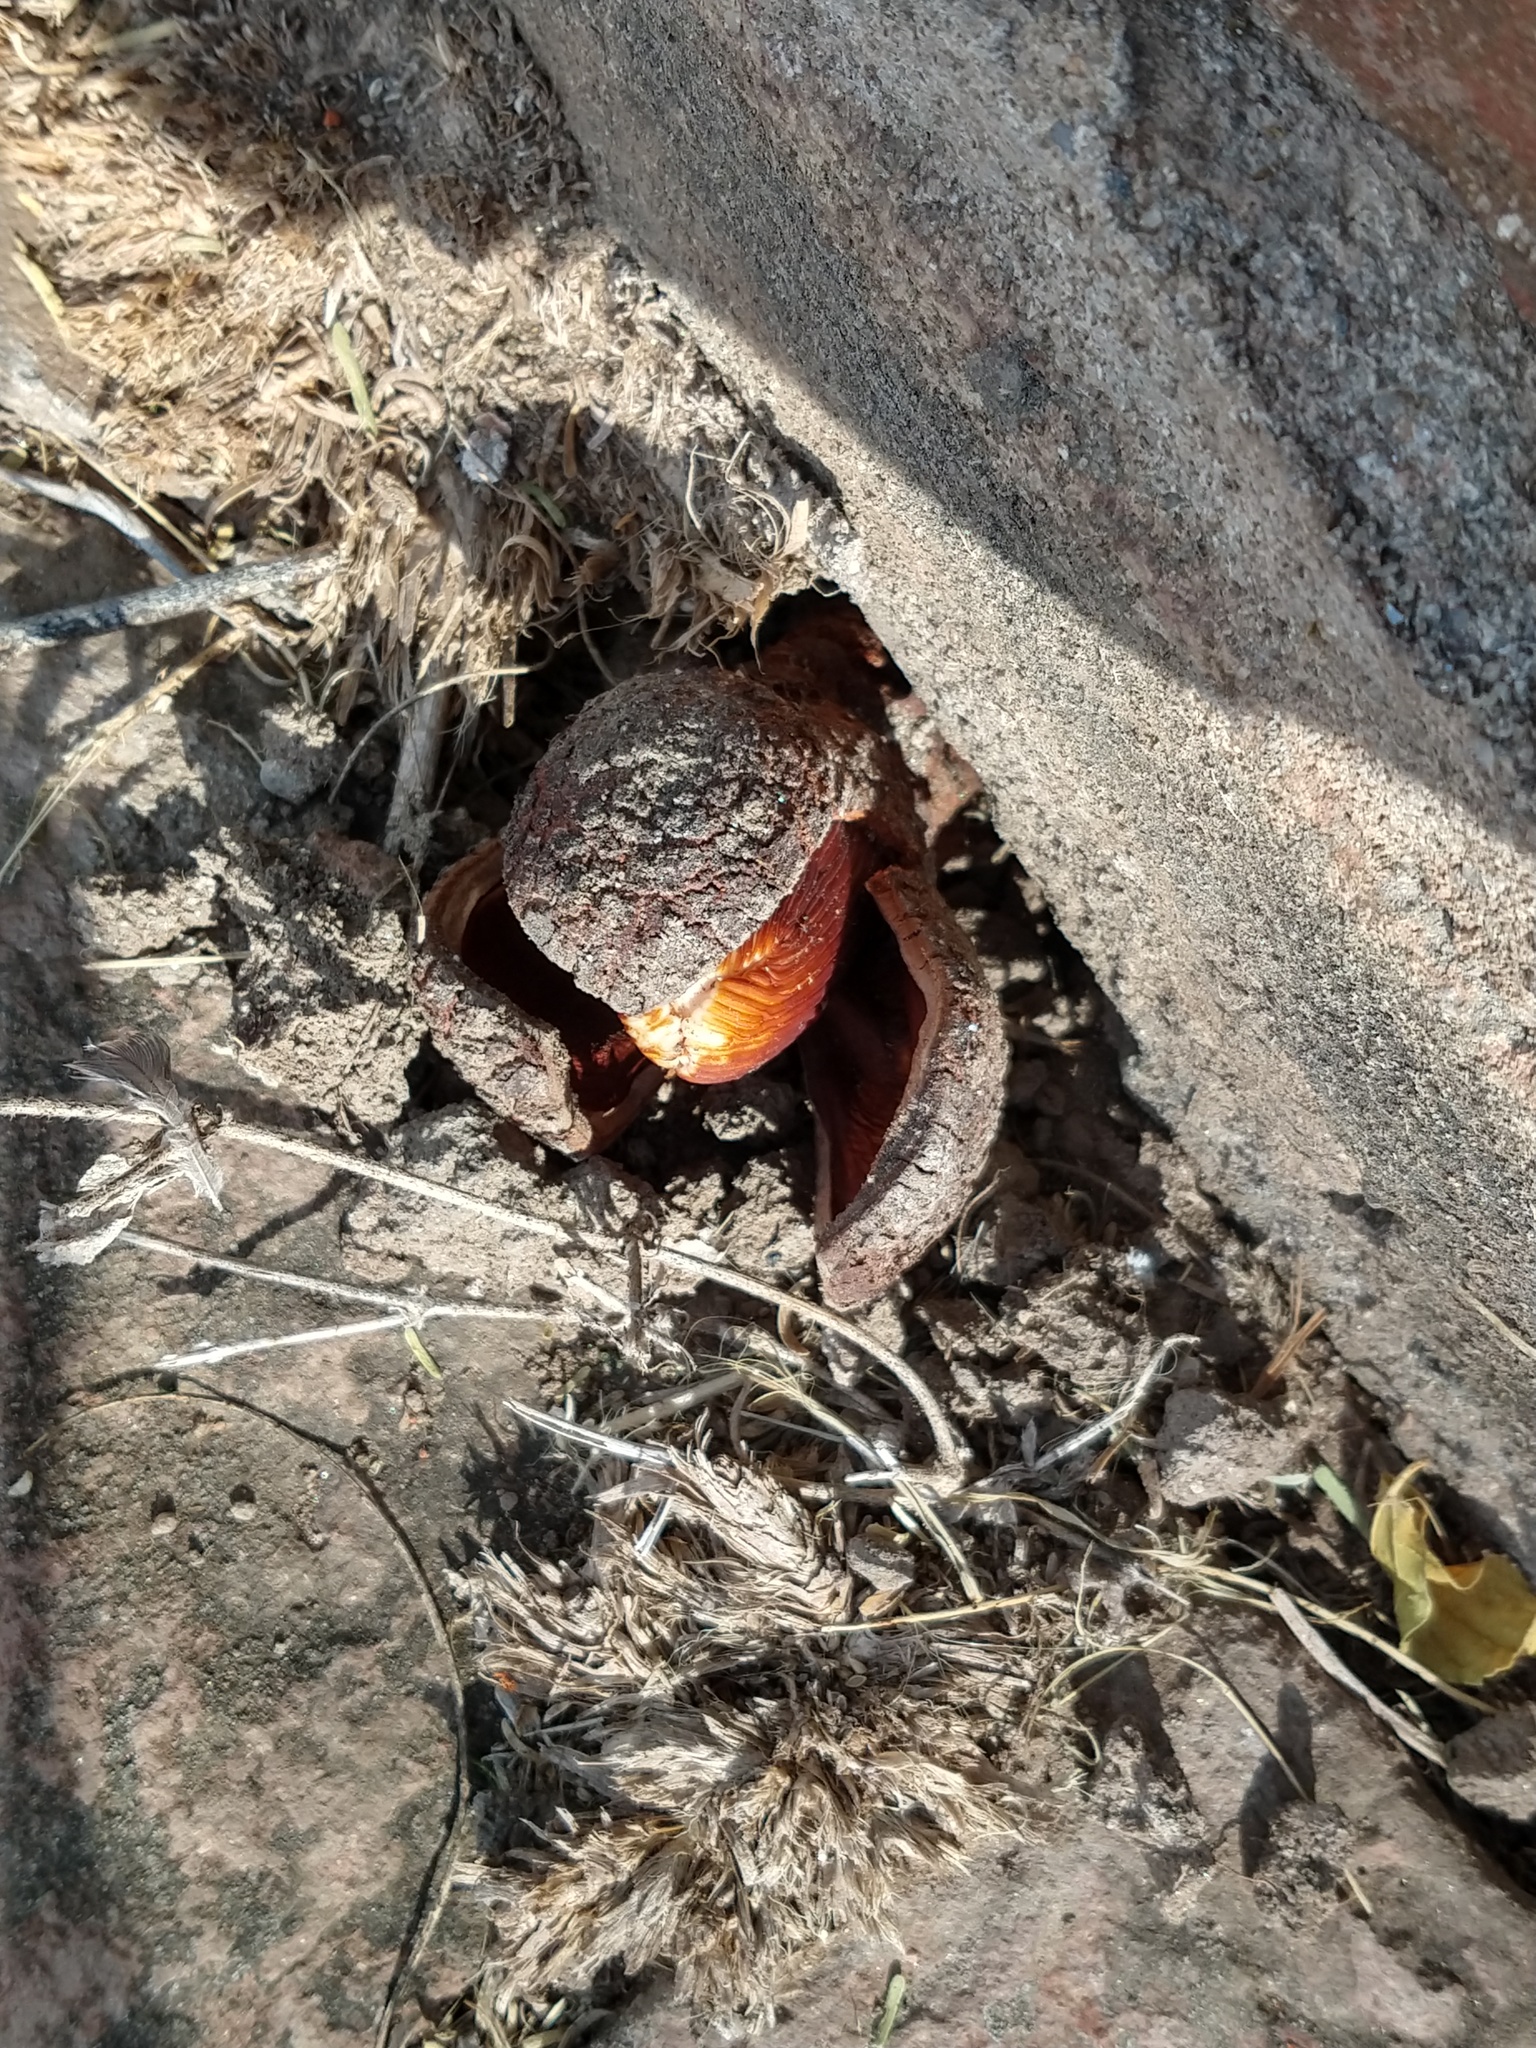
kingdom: Plantae
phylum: Tracheophyta
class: Magnoliopsida
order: Piperales
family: Hydnoraceae
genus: Prosopanche
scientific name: Prosopanche americana
